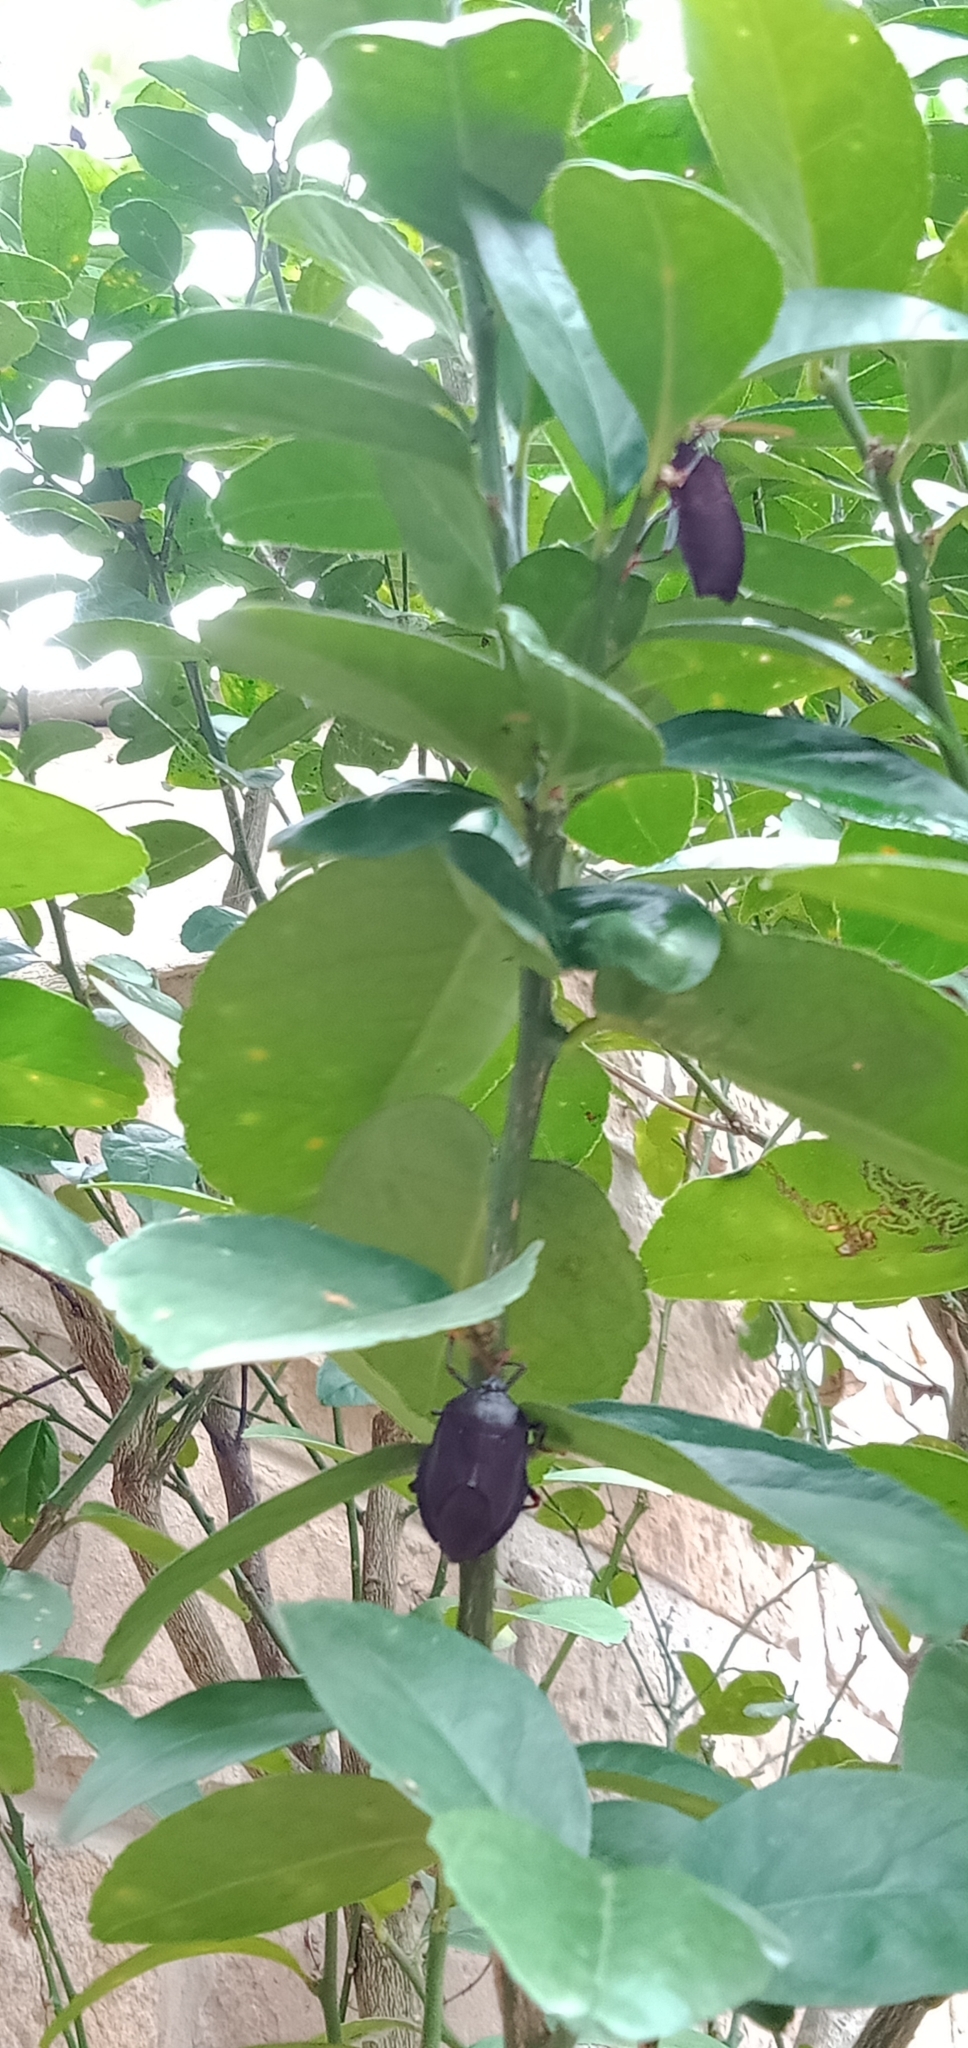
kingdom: Animalia
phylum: Arthropoda
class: Insecta
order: Hemiptera
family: Tessaratomidae
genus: Musgraveia
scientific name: Musgraveia sulciventris
